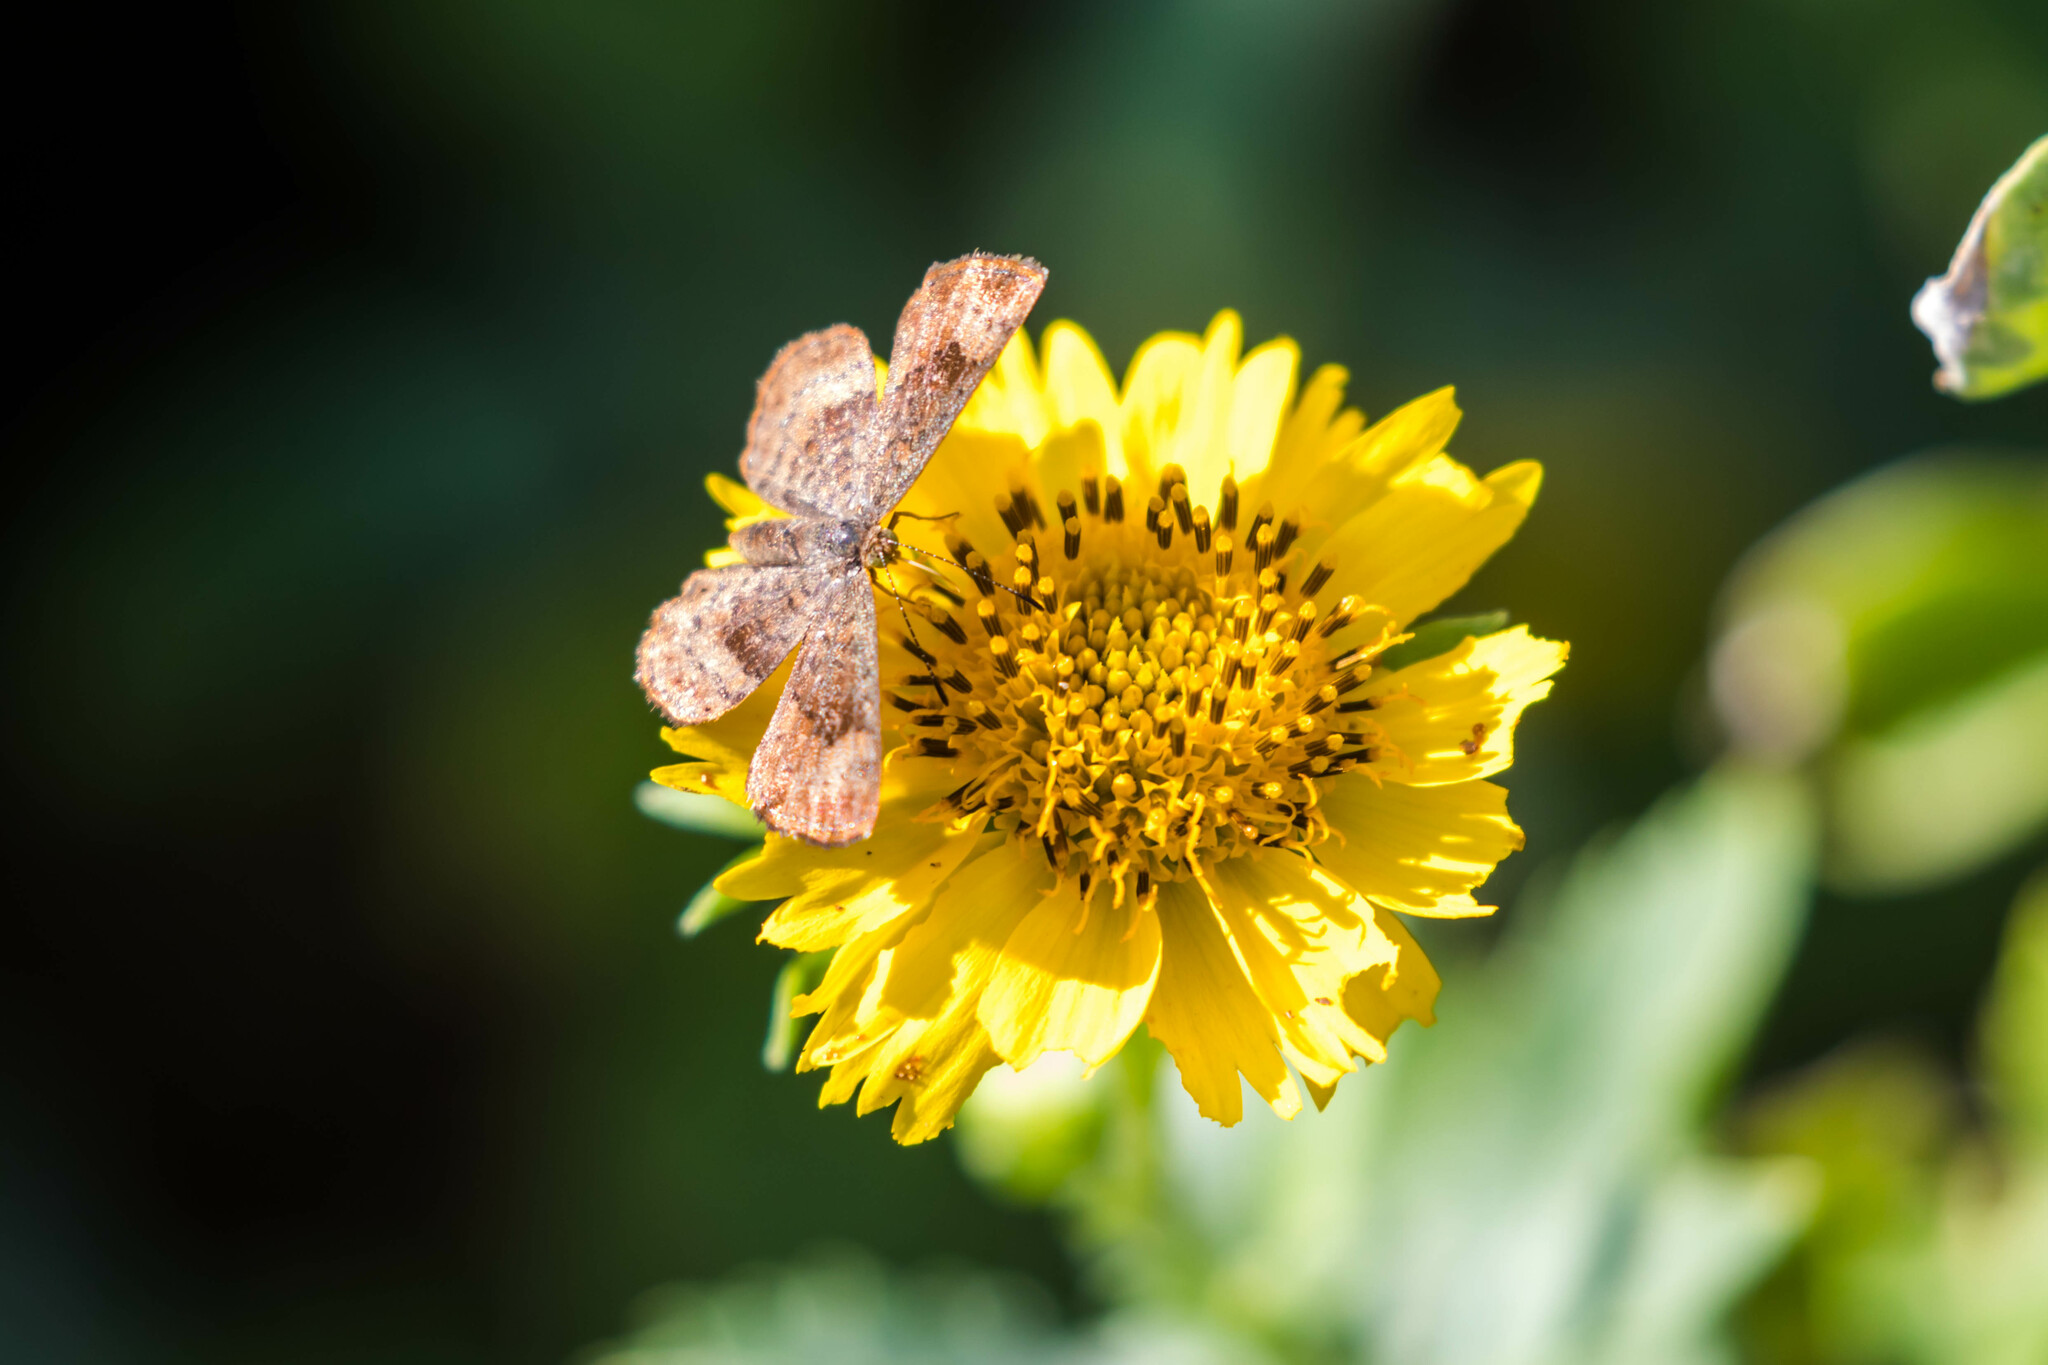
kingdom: Animalia
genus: Calephelis
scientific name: Calephelis nemesis
